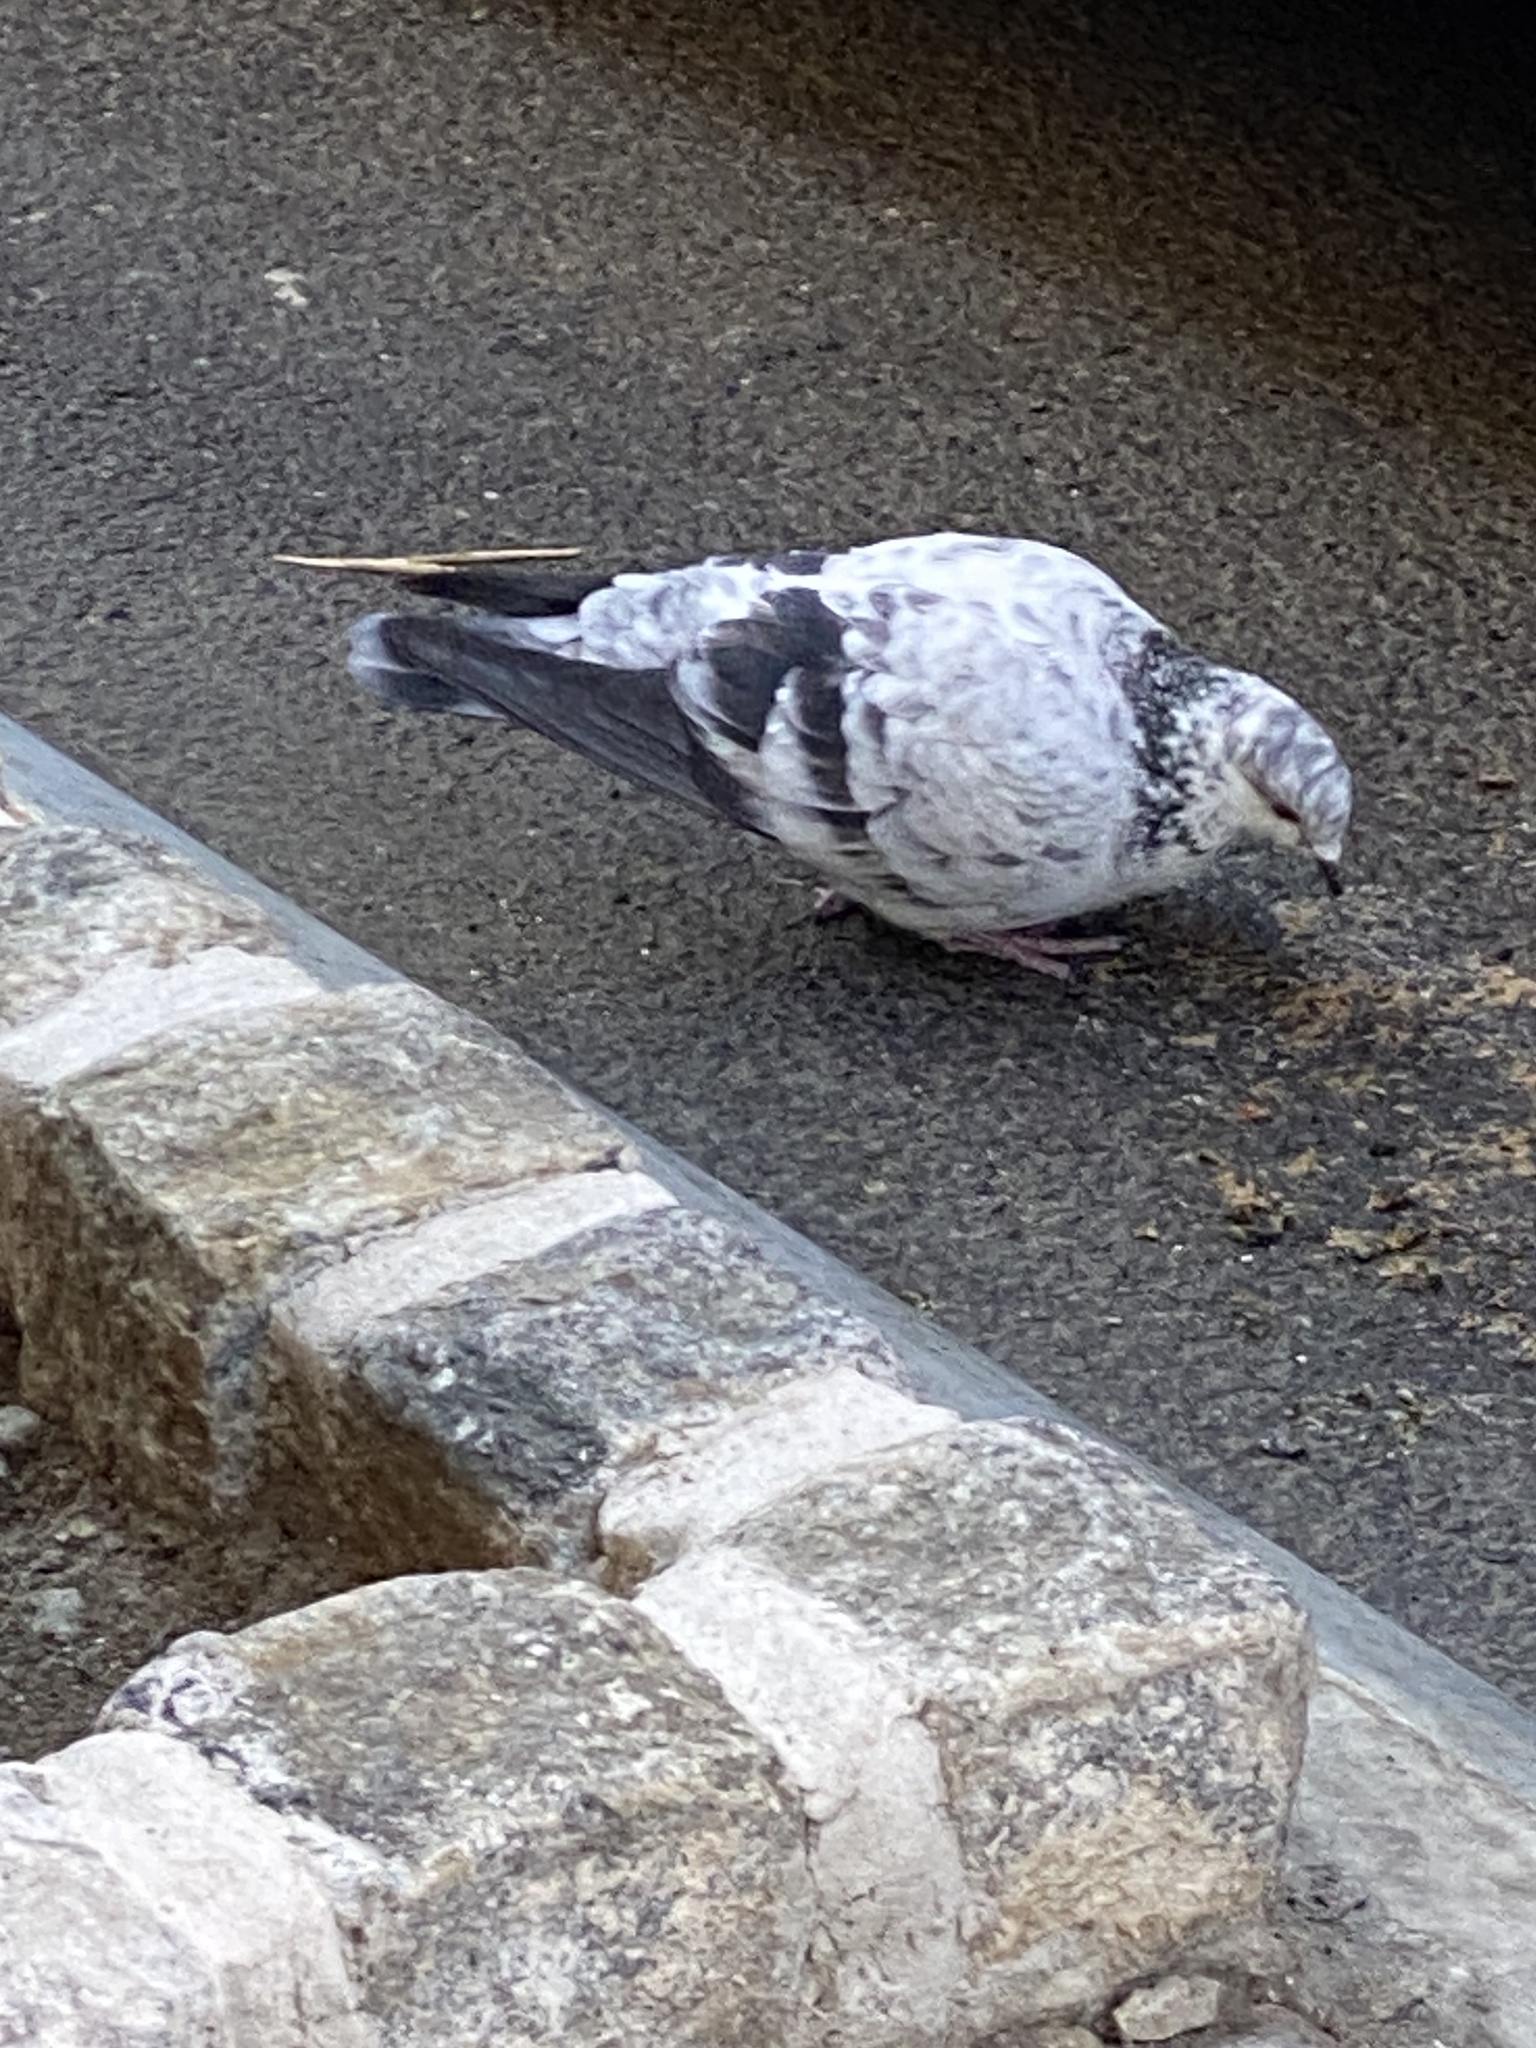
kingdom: Animalia
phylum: Chordata
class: Aves
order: Columbiformes
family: Columbidae
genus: Columba
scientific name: Columba livia
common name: Rock pigeon
